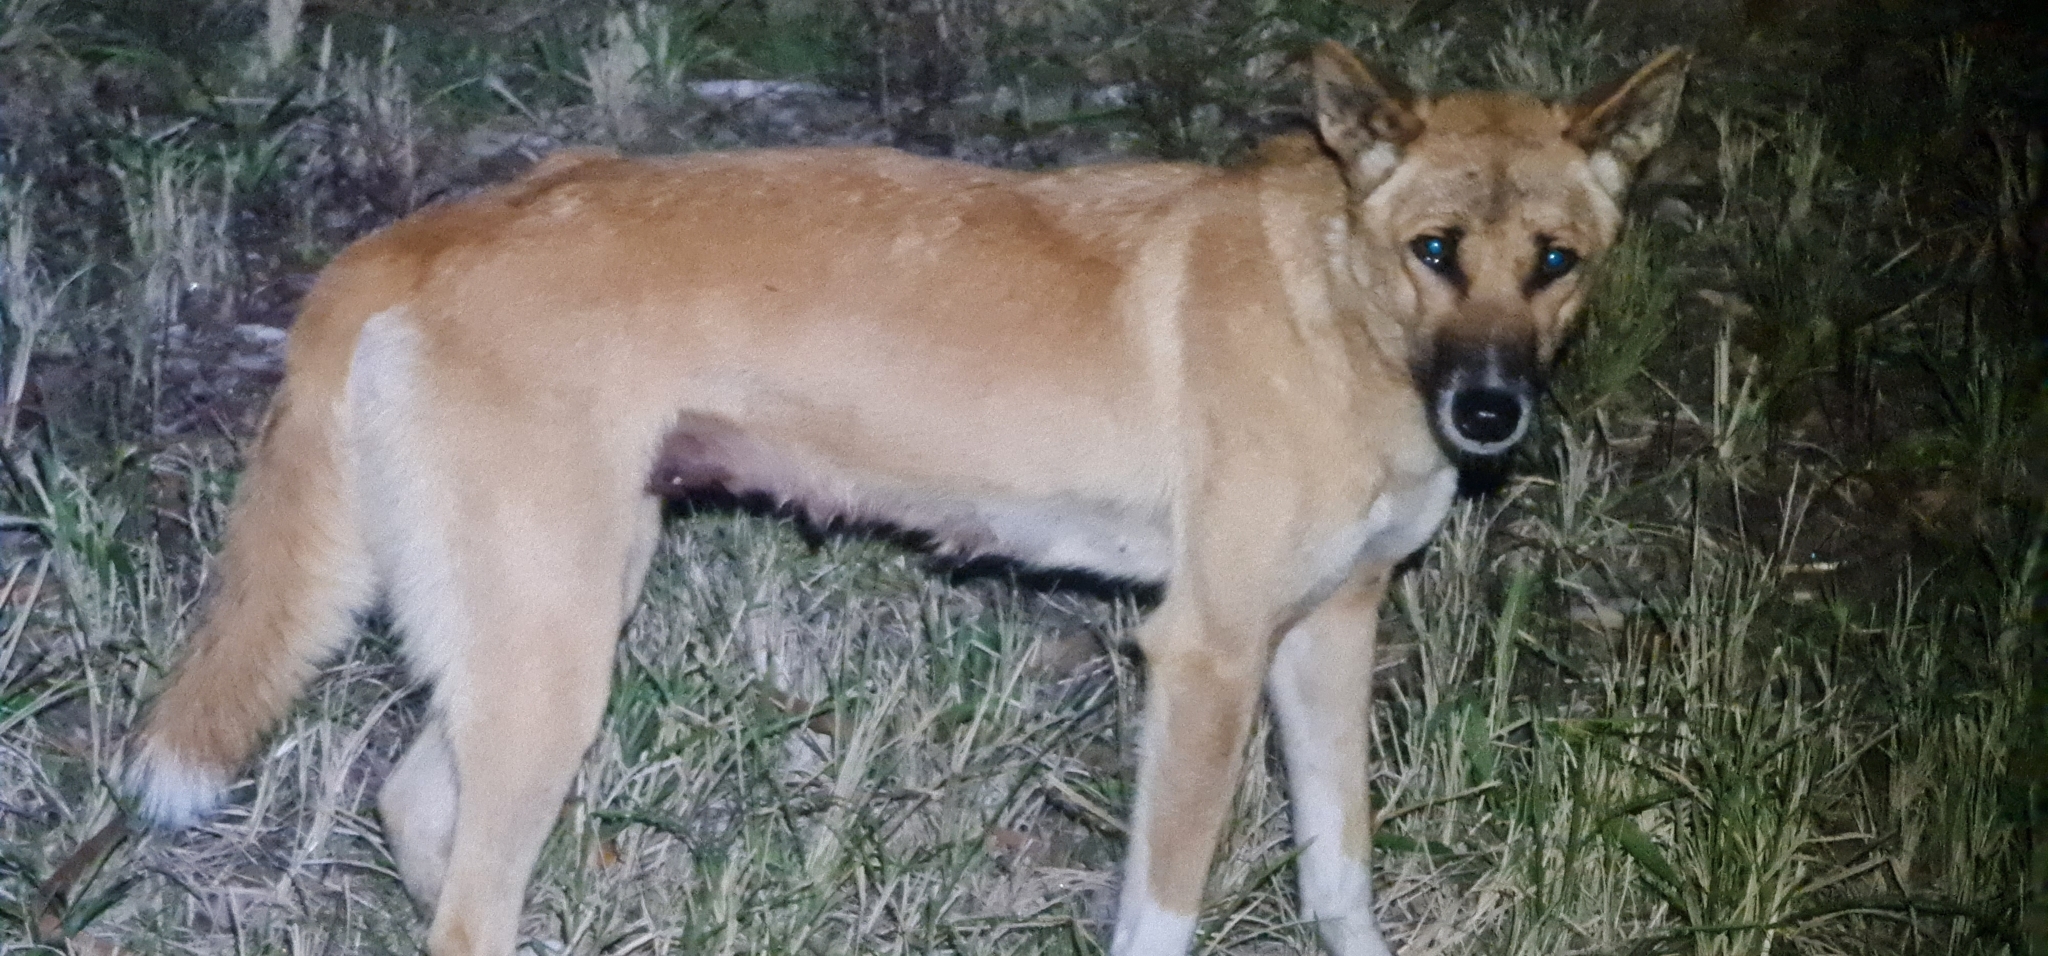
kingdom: Animalia
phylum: Chordata
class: Mammalia
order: Carnivora
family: Canidae
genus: Canis
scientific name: Canis lupus
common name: Gray wolf
